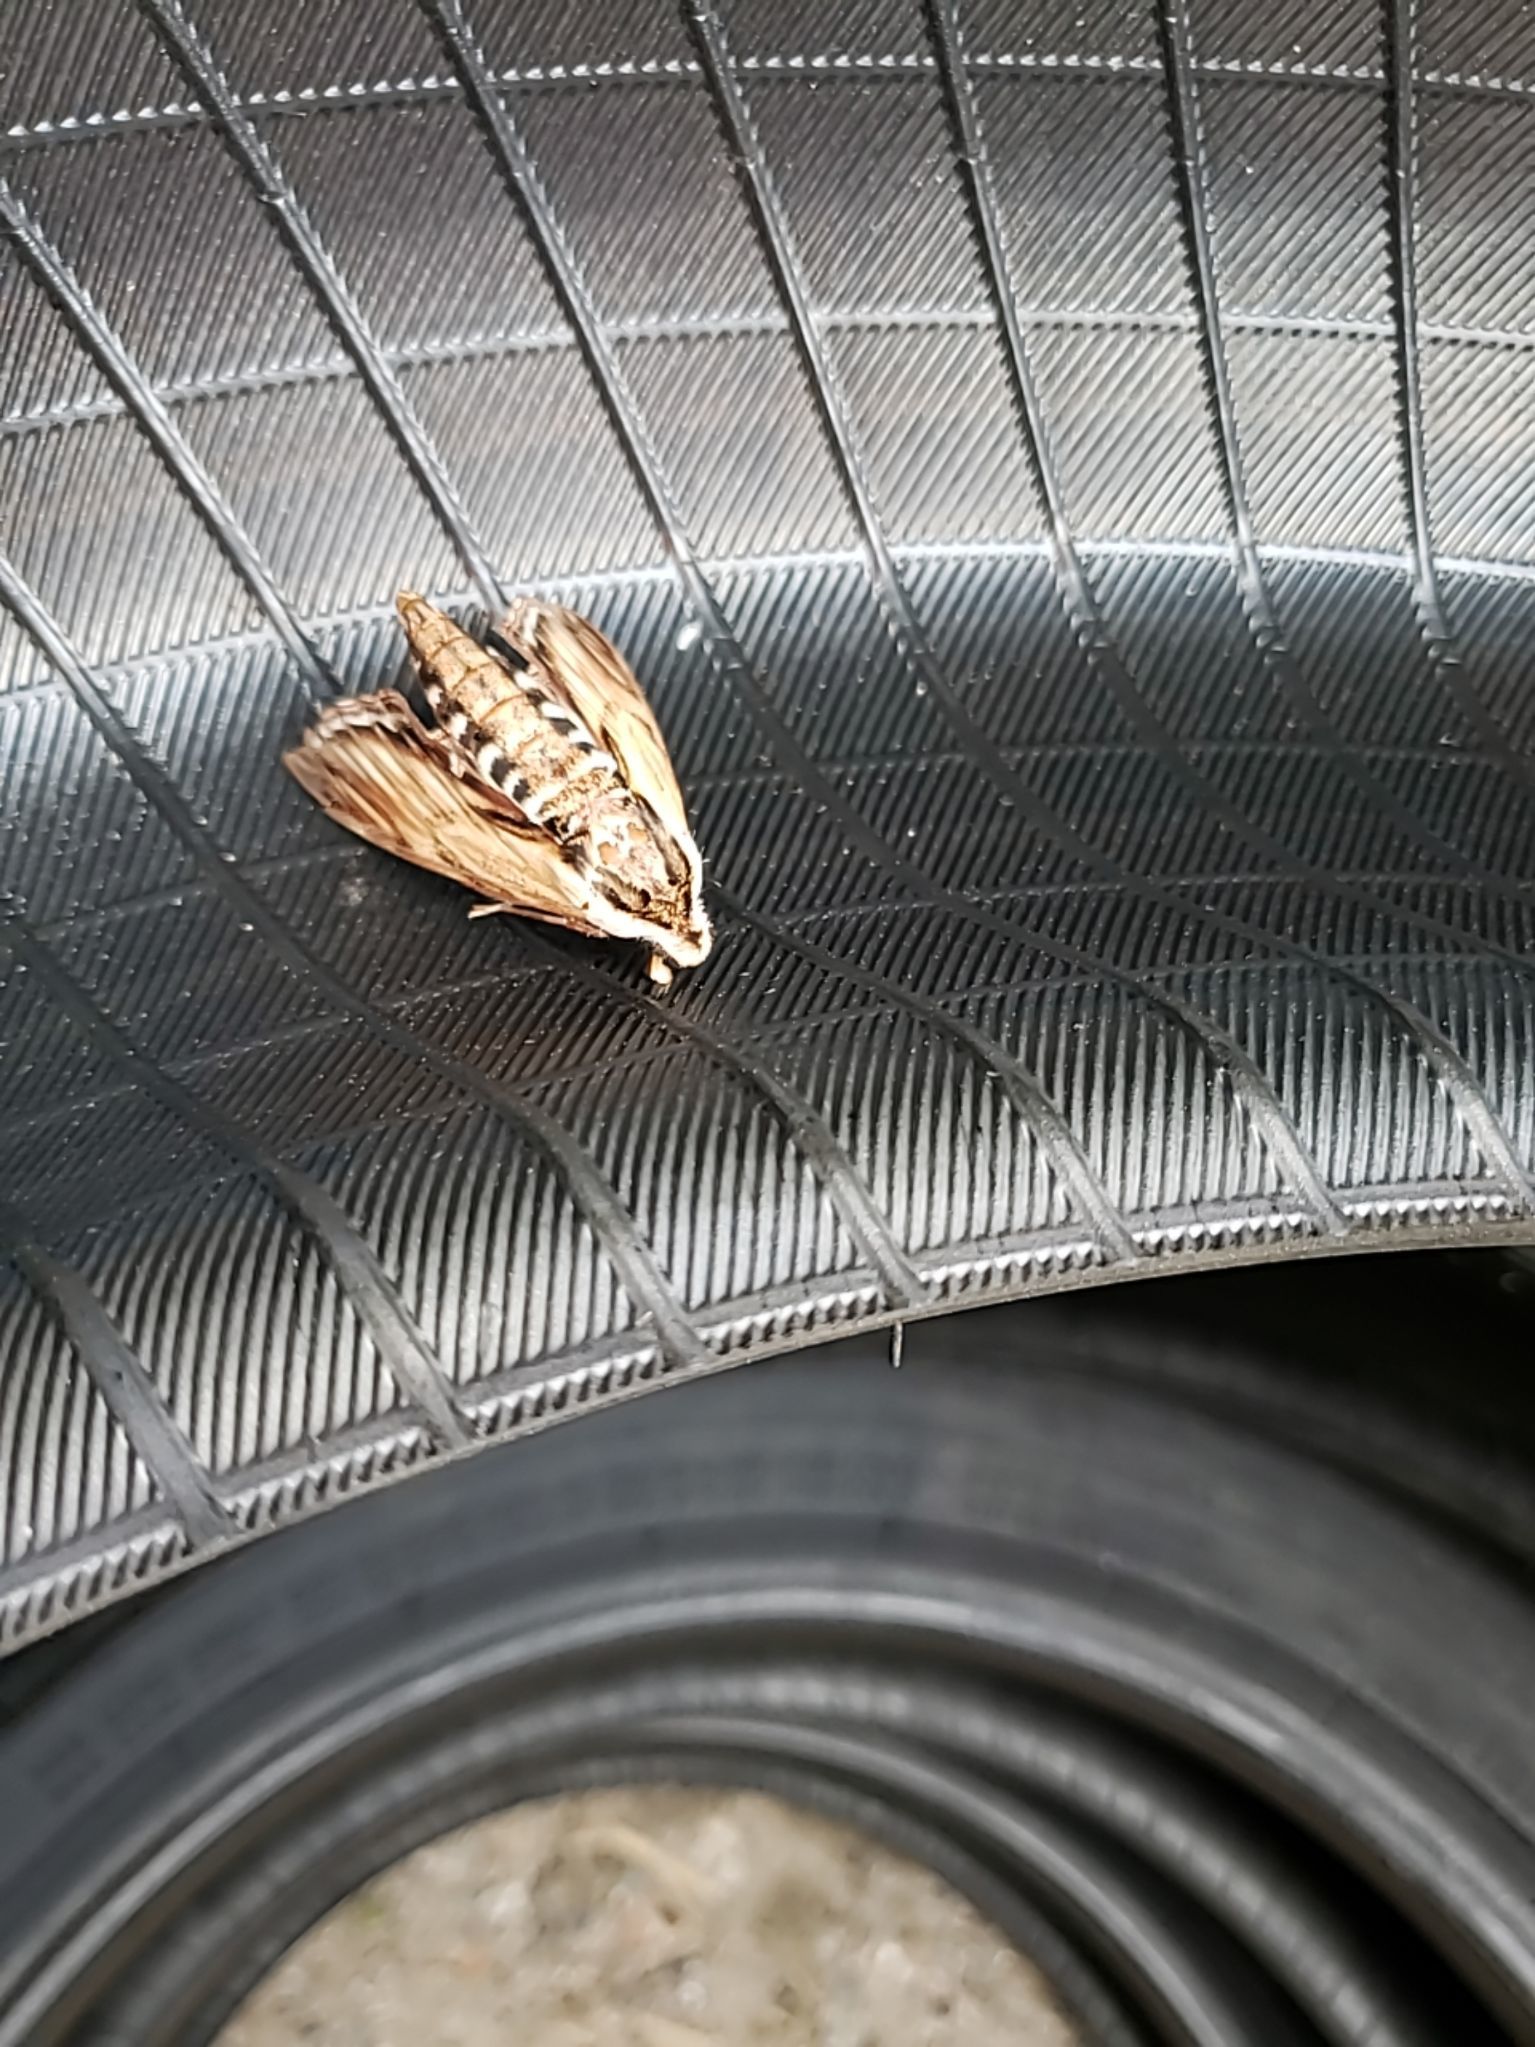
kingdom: Animalia
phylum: Arthropoda
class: Insecta
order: Lepidoptera
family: Sphingidae
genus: Sphinx
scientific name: Sphinx kalmiae
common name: Laurel sphinx
